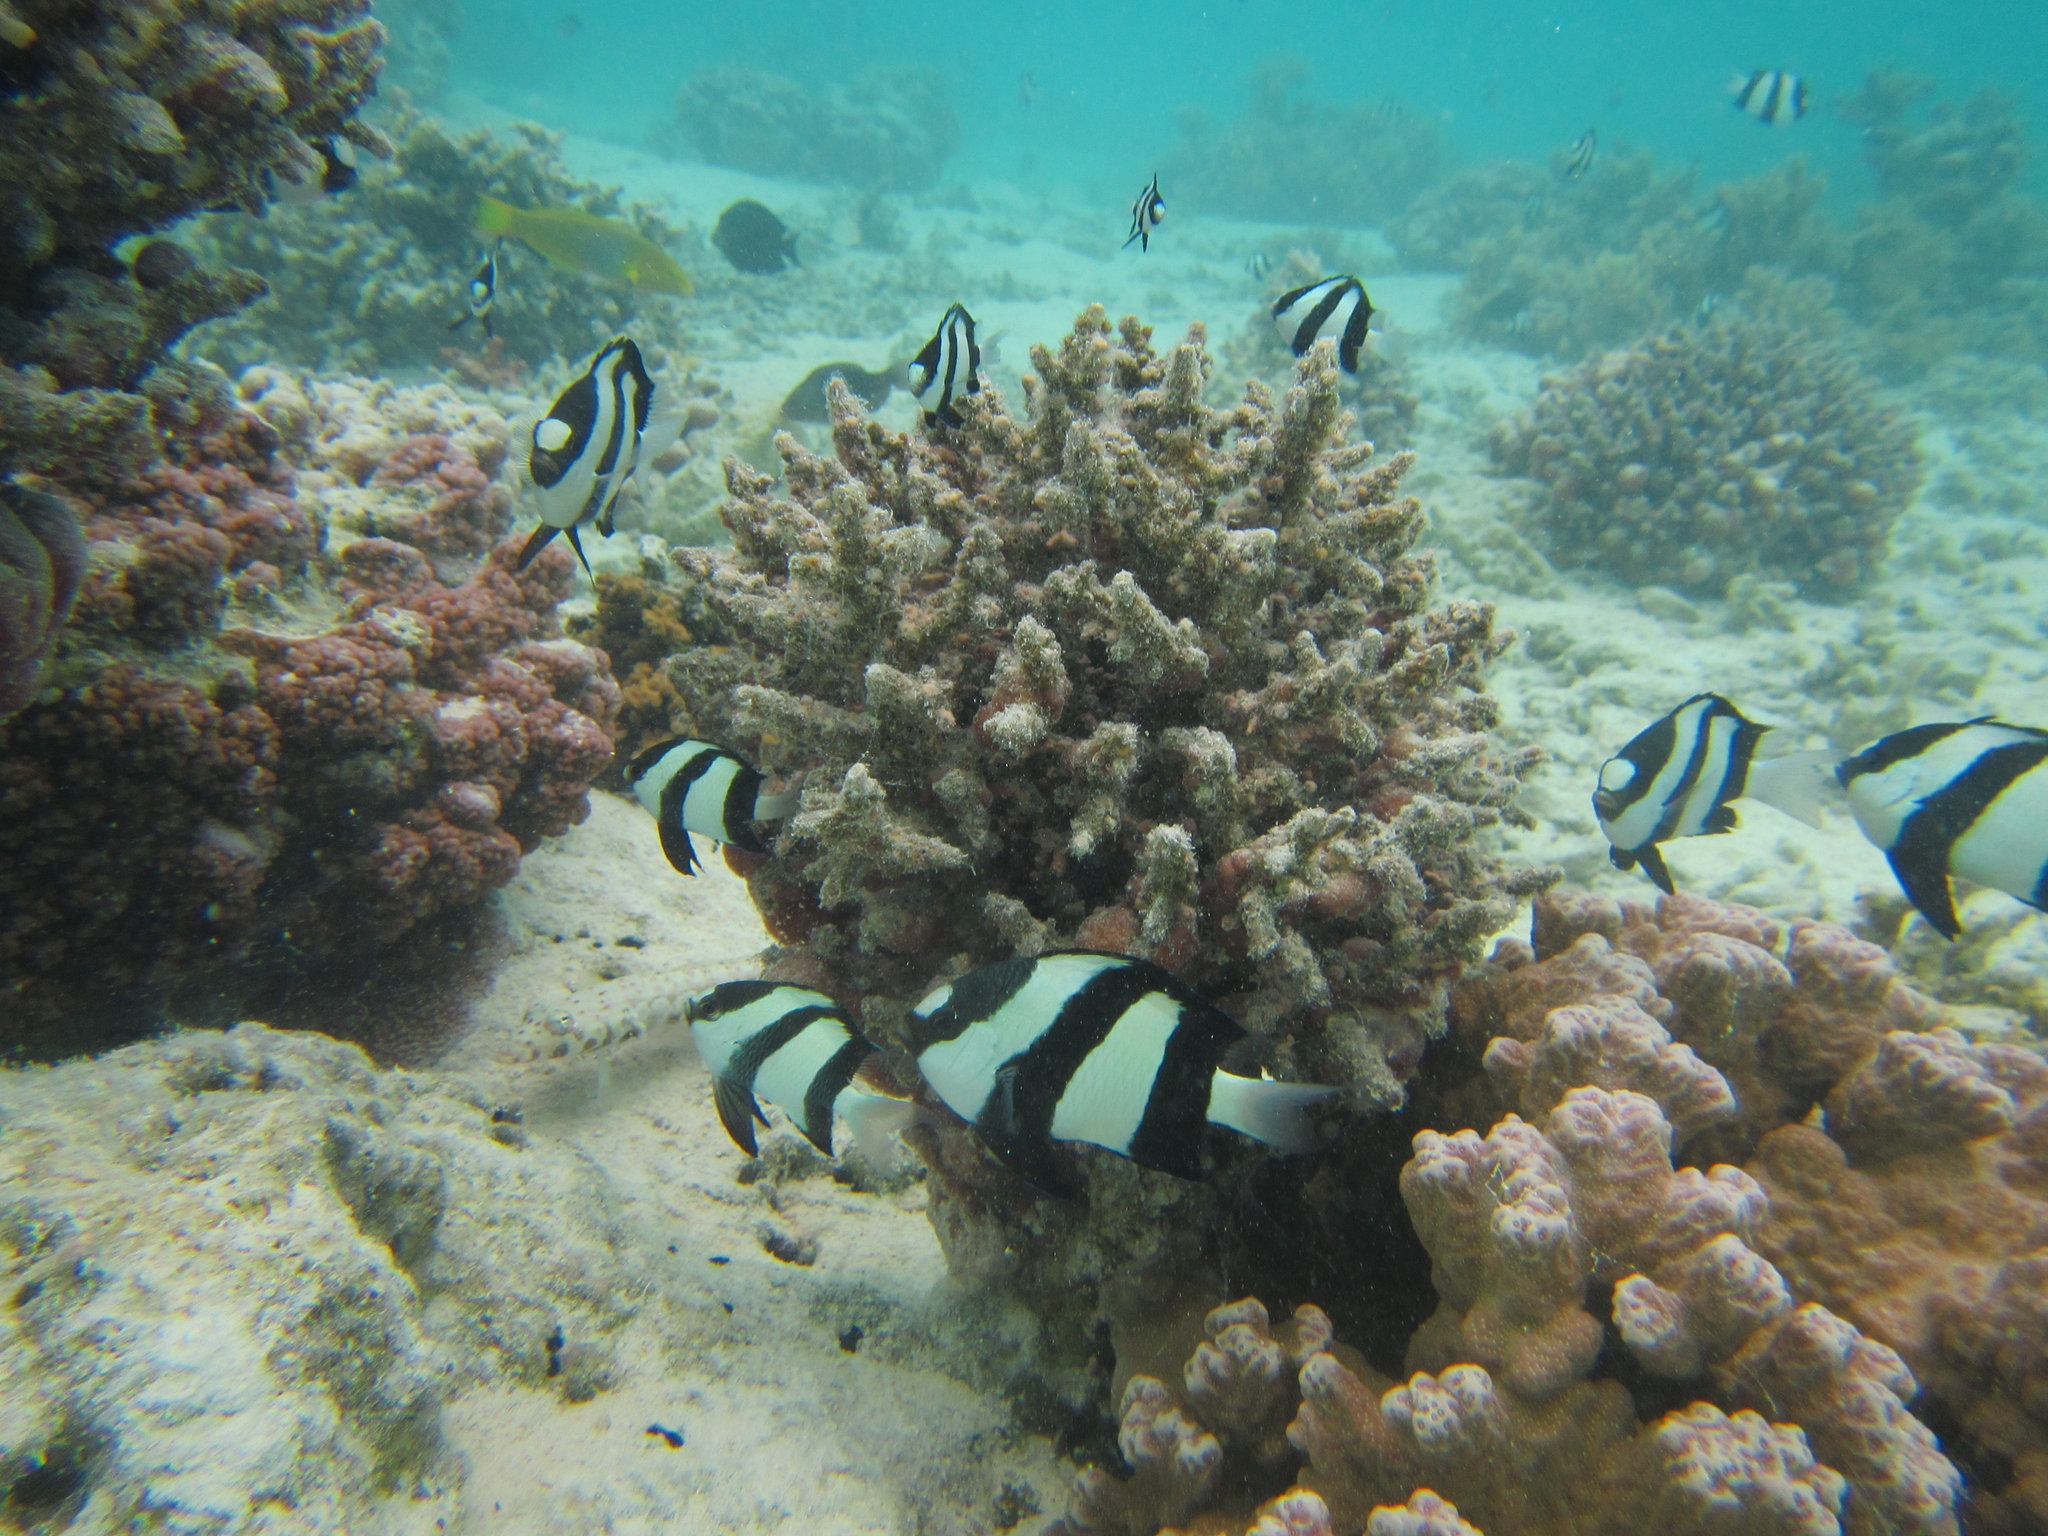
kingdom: Animalia
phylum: Chordata
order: Perciformes
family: Pomacentridae
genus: Dascyllus
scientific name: Dascyllus aruanus
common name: Humbug dascyllus
